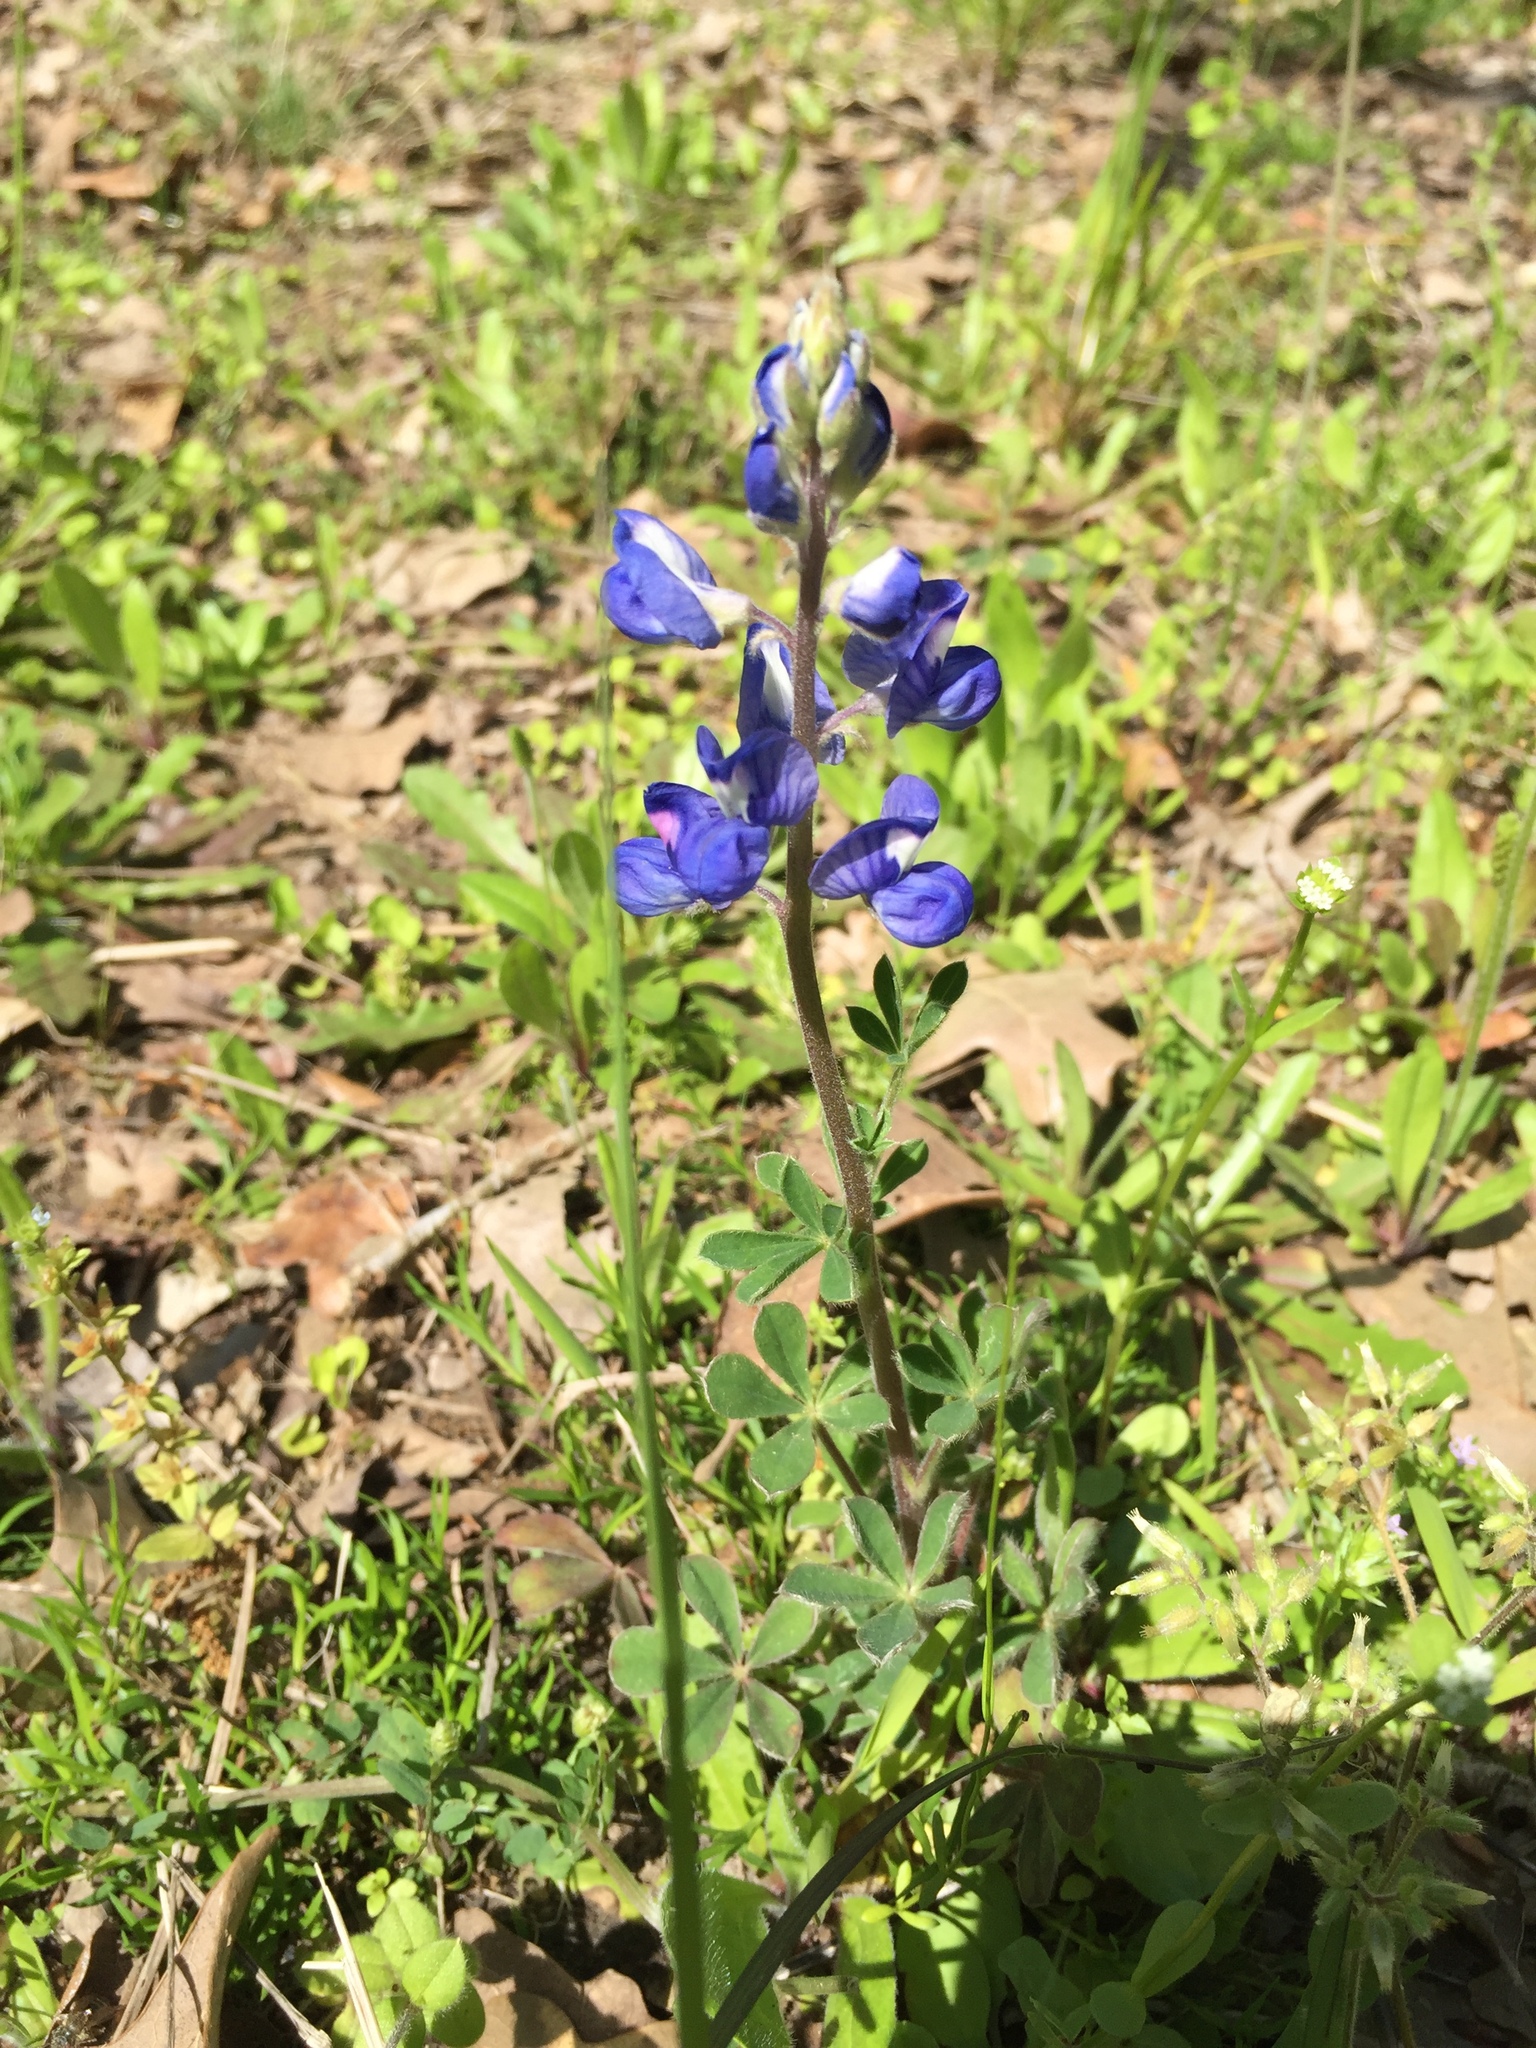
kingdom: Plantae
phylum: Tracheophyta
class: Magnoliopsida
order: Fabales
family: Fabaceae
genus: Lupinus
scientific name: Lupinus subcarnosus
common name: Texas bluebonnet
